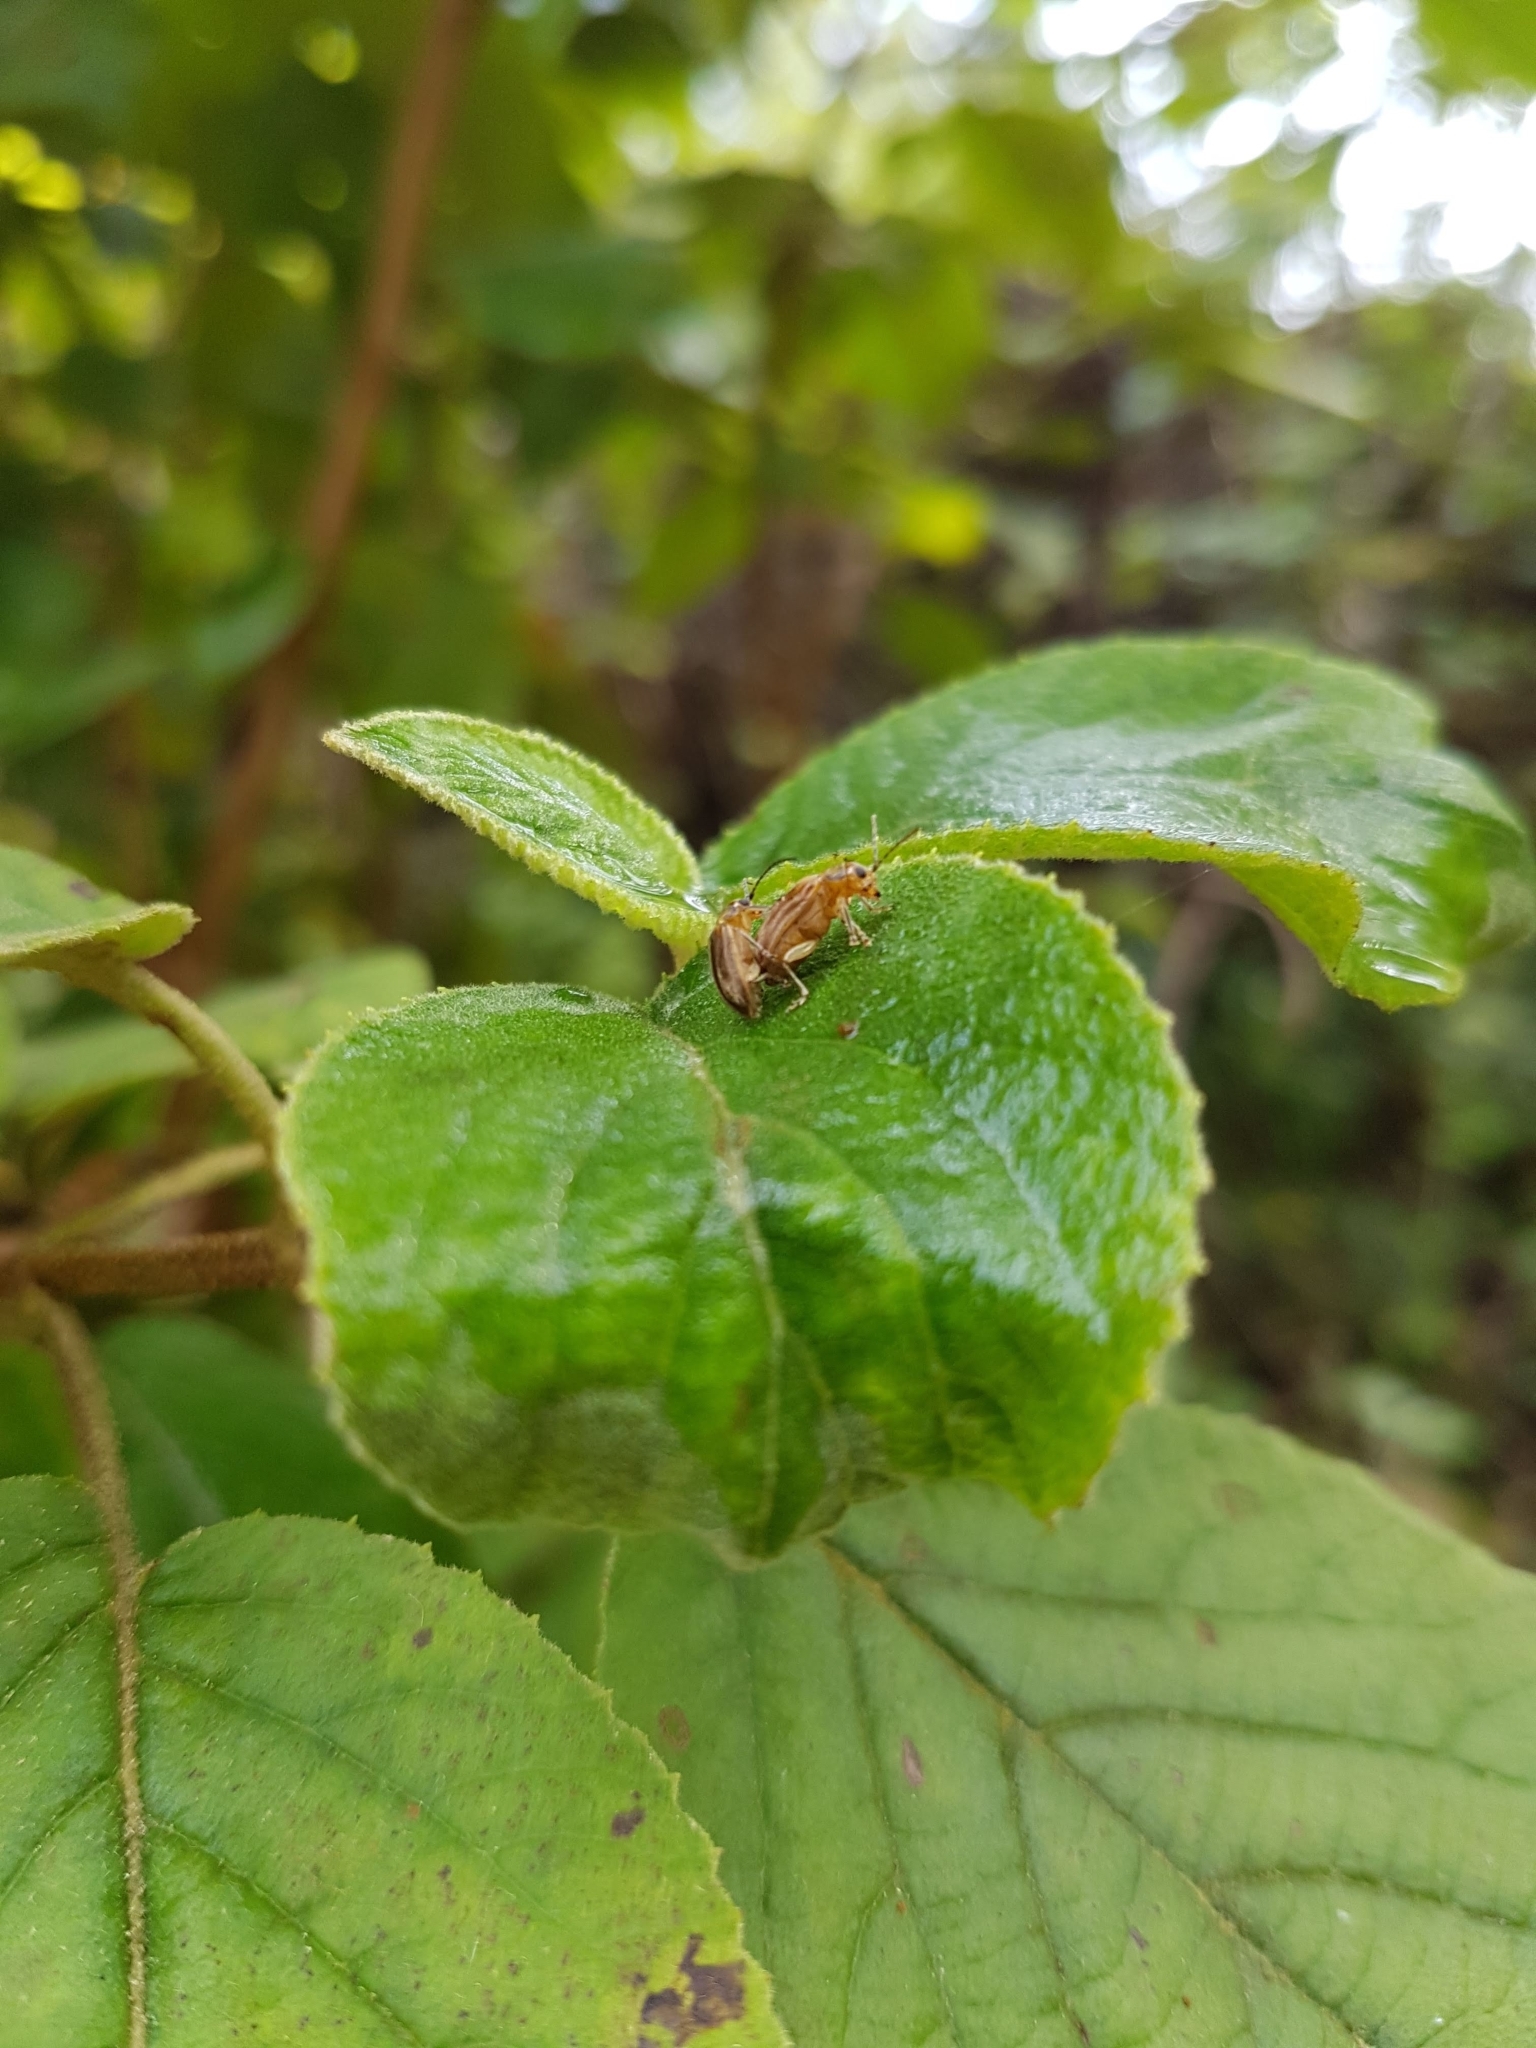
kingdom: Animalia
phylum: Arthropoda
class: Insecta
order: Coleoptera
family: Chrysomelidae
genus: Pyrrhalta
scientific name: Pyrrhalta viburni
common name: Guelder-rose leaf beetle
